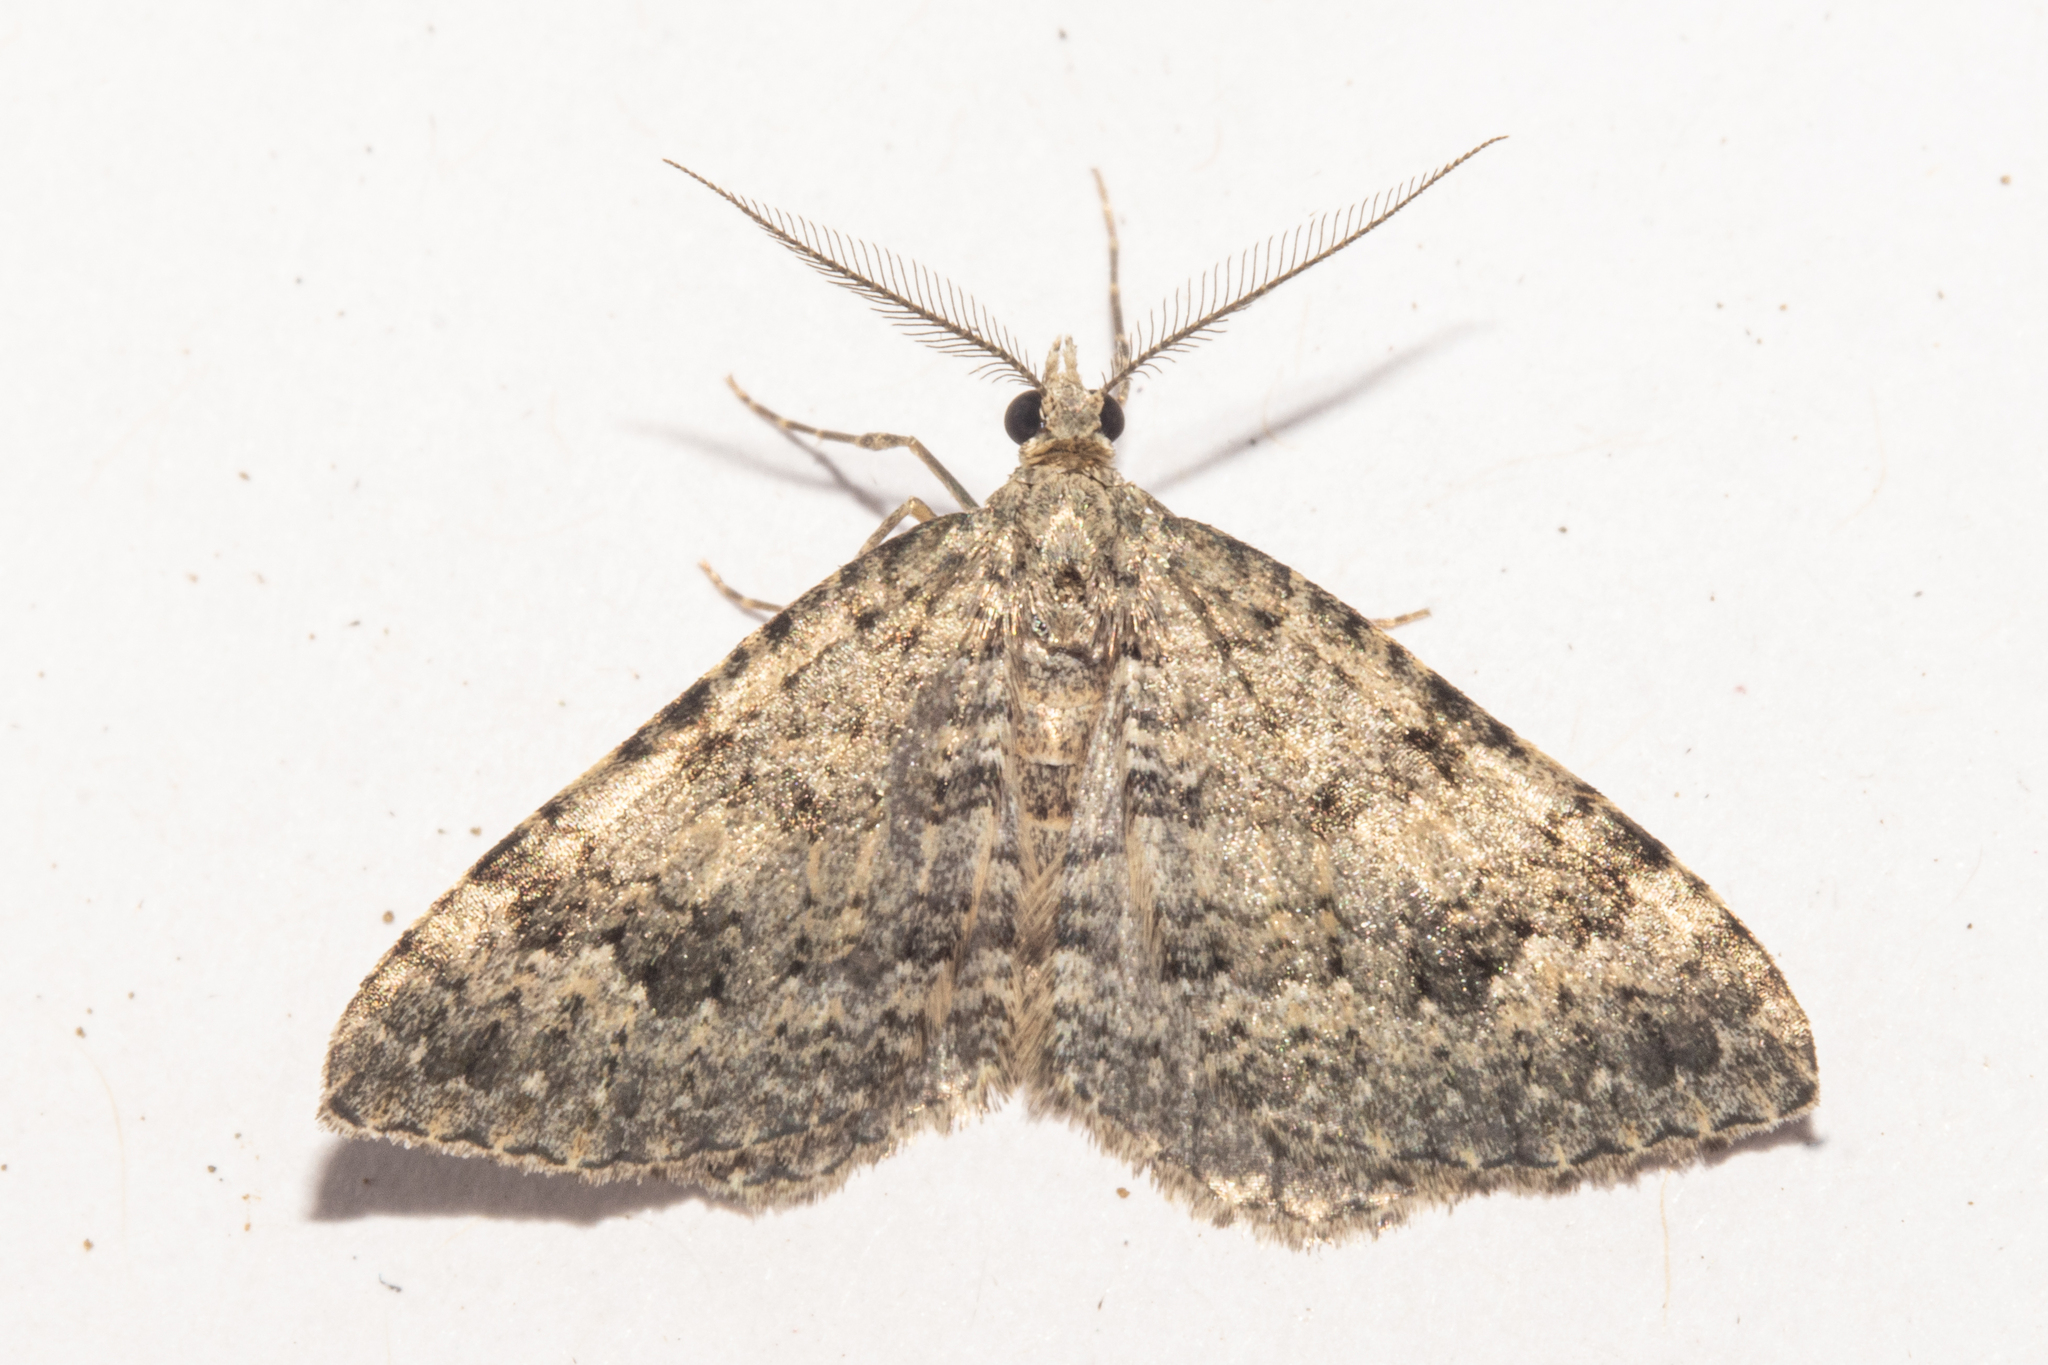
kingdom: Animalia
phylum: Arthropoda
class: Insecta
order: Lepidoptera
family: Geometridae
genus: Helastia
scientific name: Helastia corcularia
